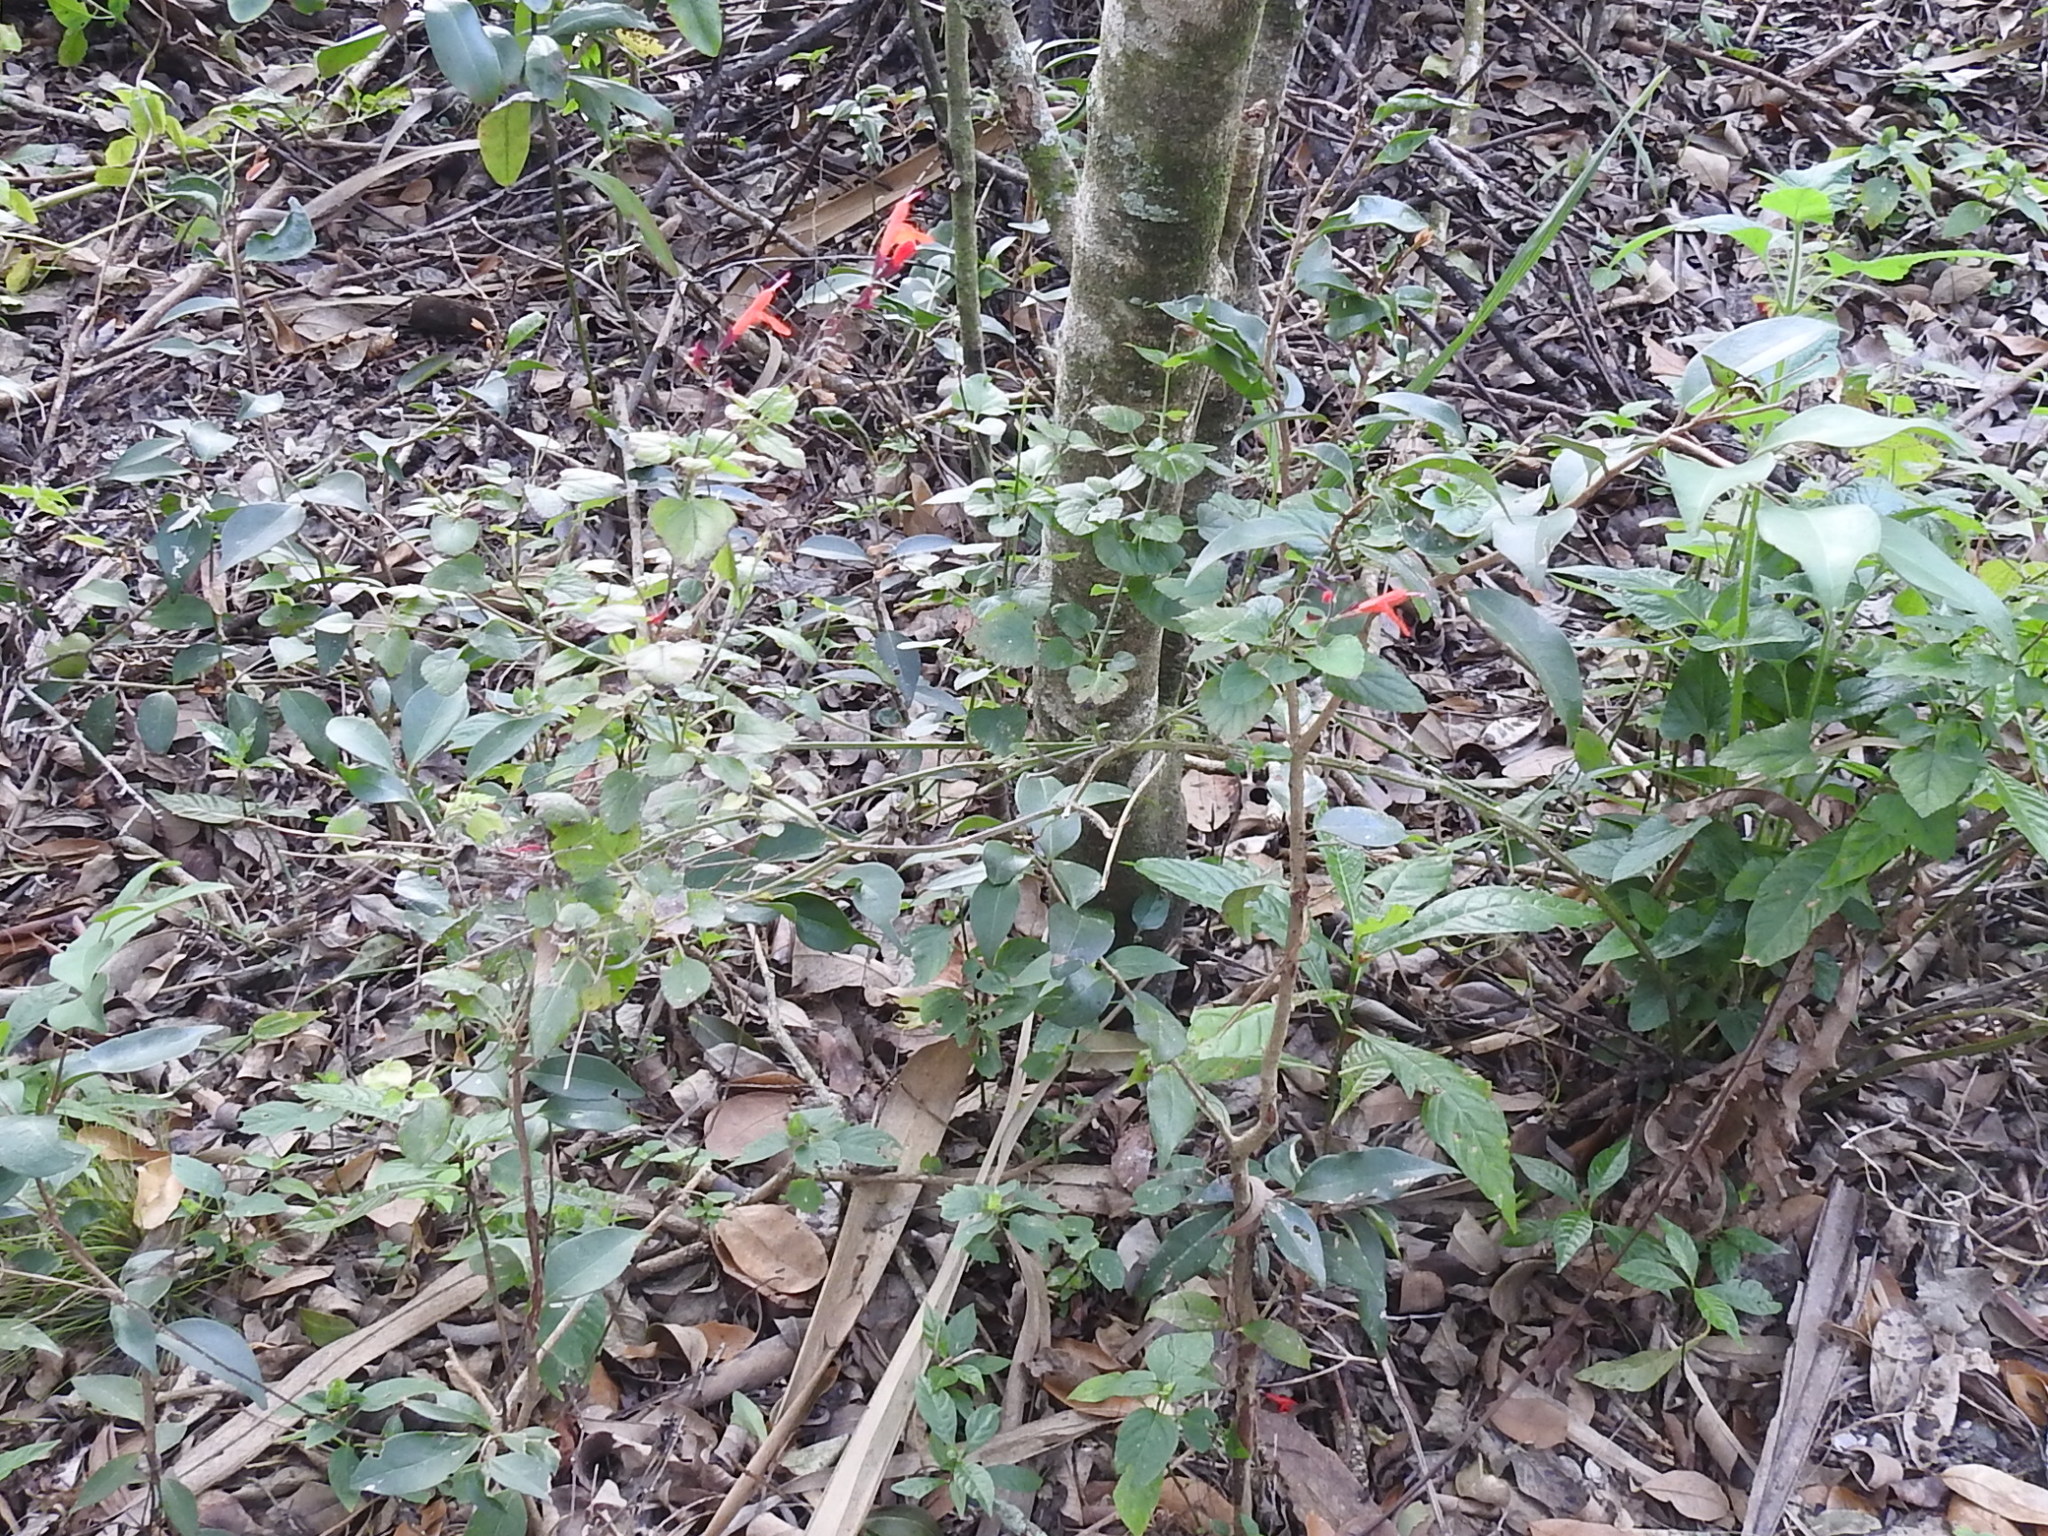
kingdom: Plantae
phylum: Tracheophyta
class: Magnoliopsida
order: Lamiales
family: Lamiaceae
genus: Salvia
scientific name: Salvia coccinea
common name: Blood sage
